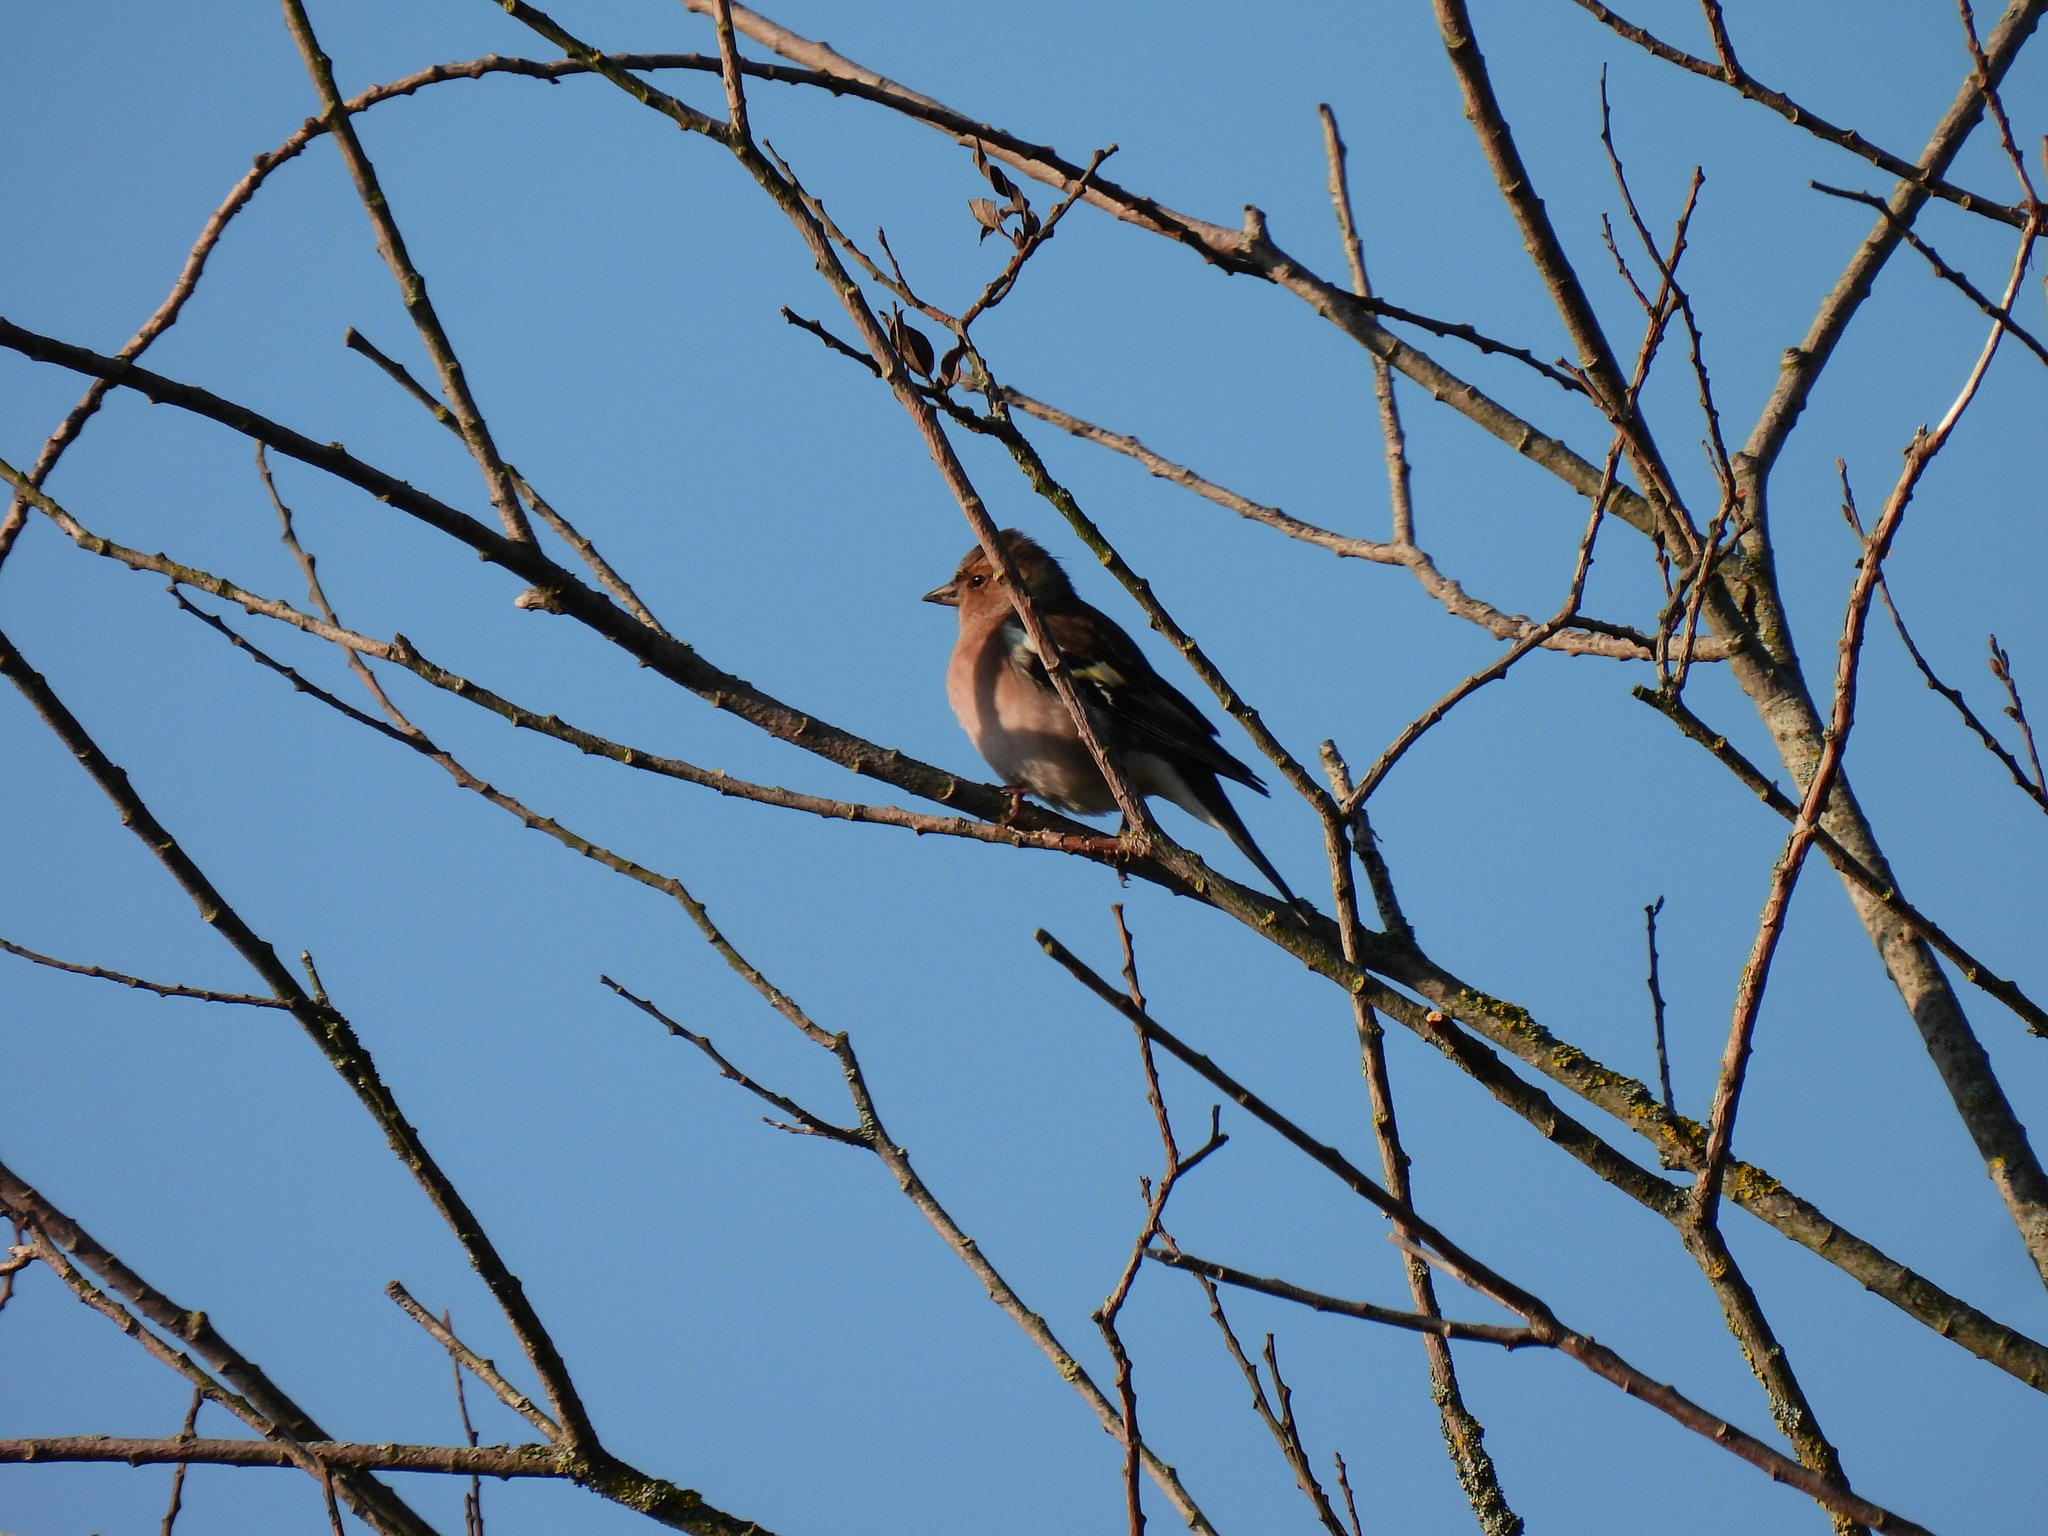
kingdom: Animalia
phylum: Chordata
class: Aves
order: Passeriformes
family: Fringillidae
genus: Fringilla
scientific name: Fringilla coelebs
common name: Common chaffinch
